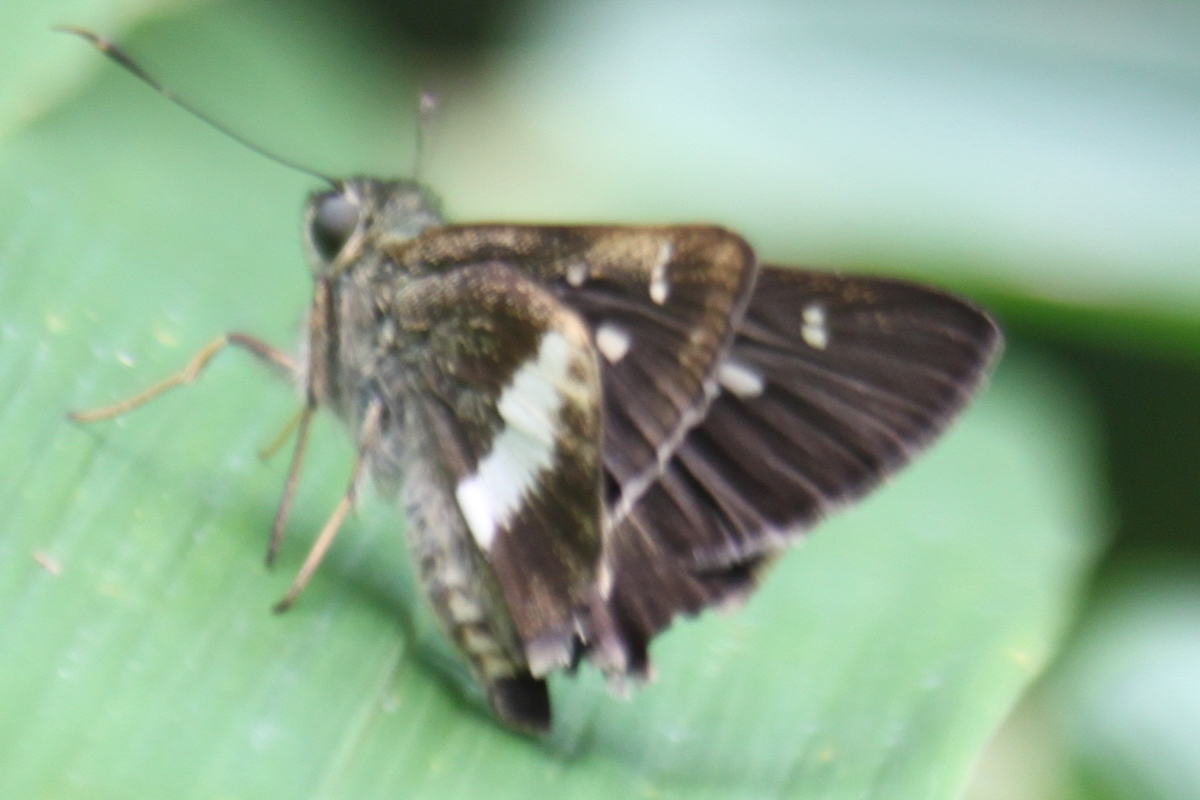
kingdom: Animalia
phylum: Arthropoda
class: Insecta
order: Lepidoptera
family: Hesperiidae
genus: Halpe
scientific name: Halpe zola
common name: Long-banded ace
